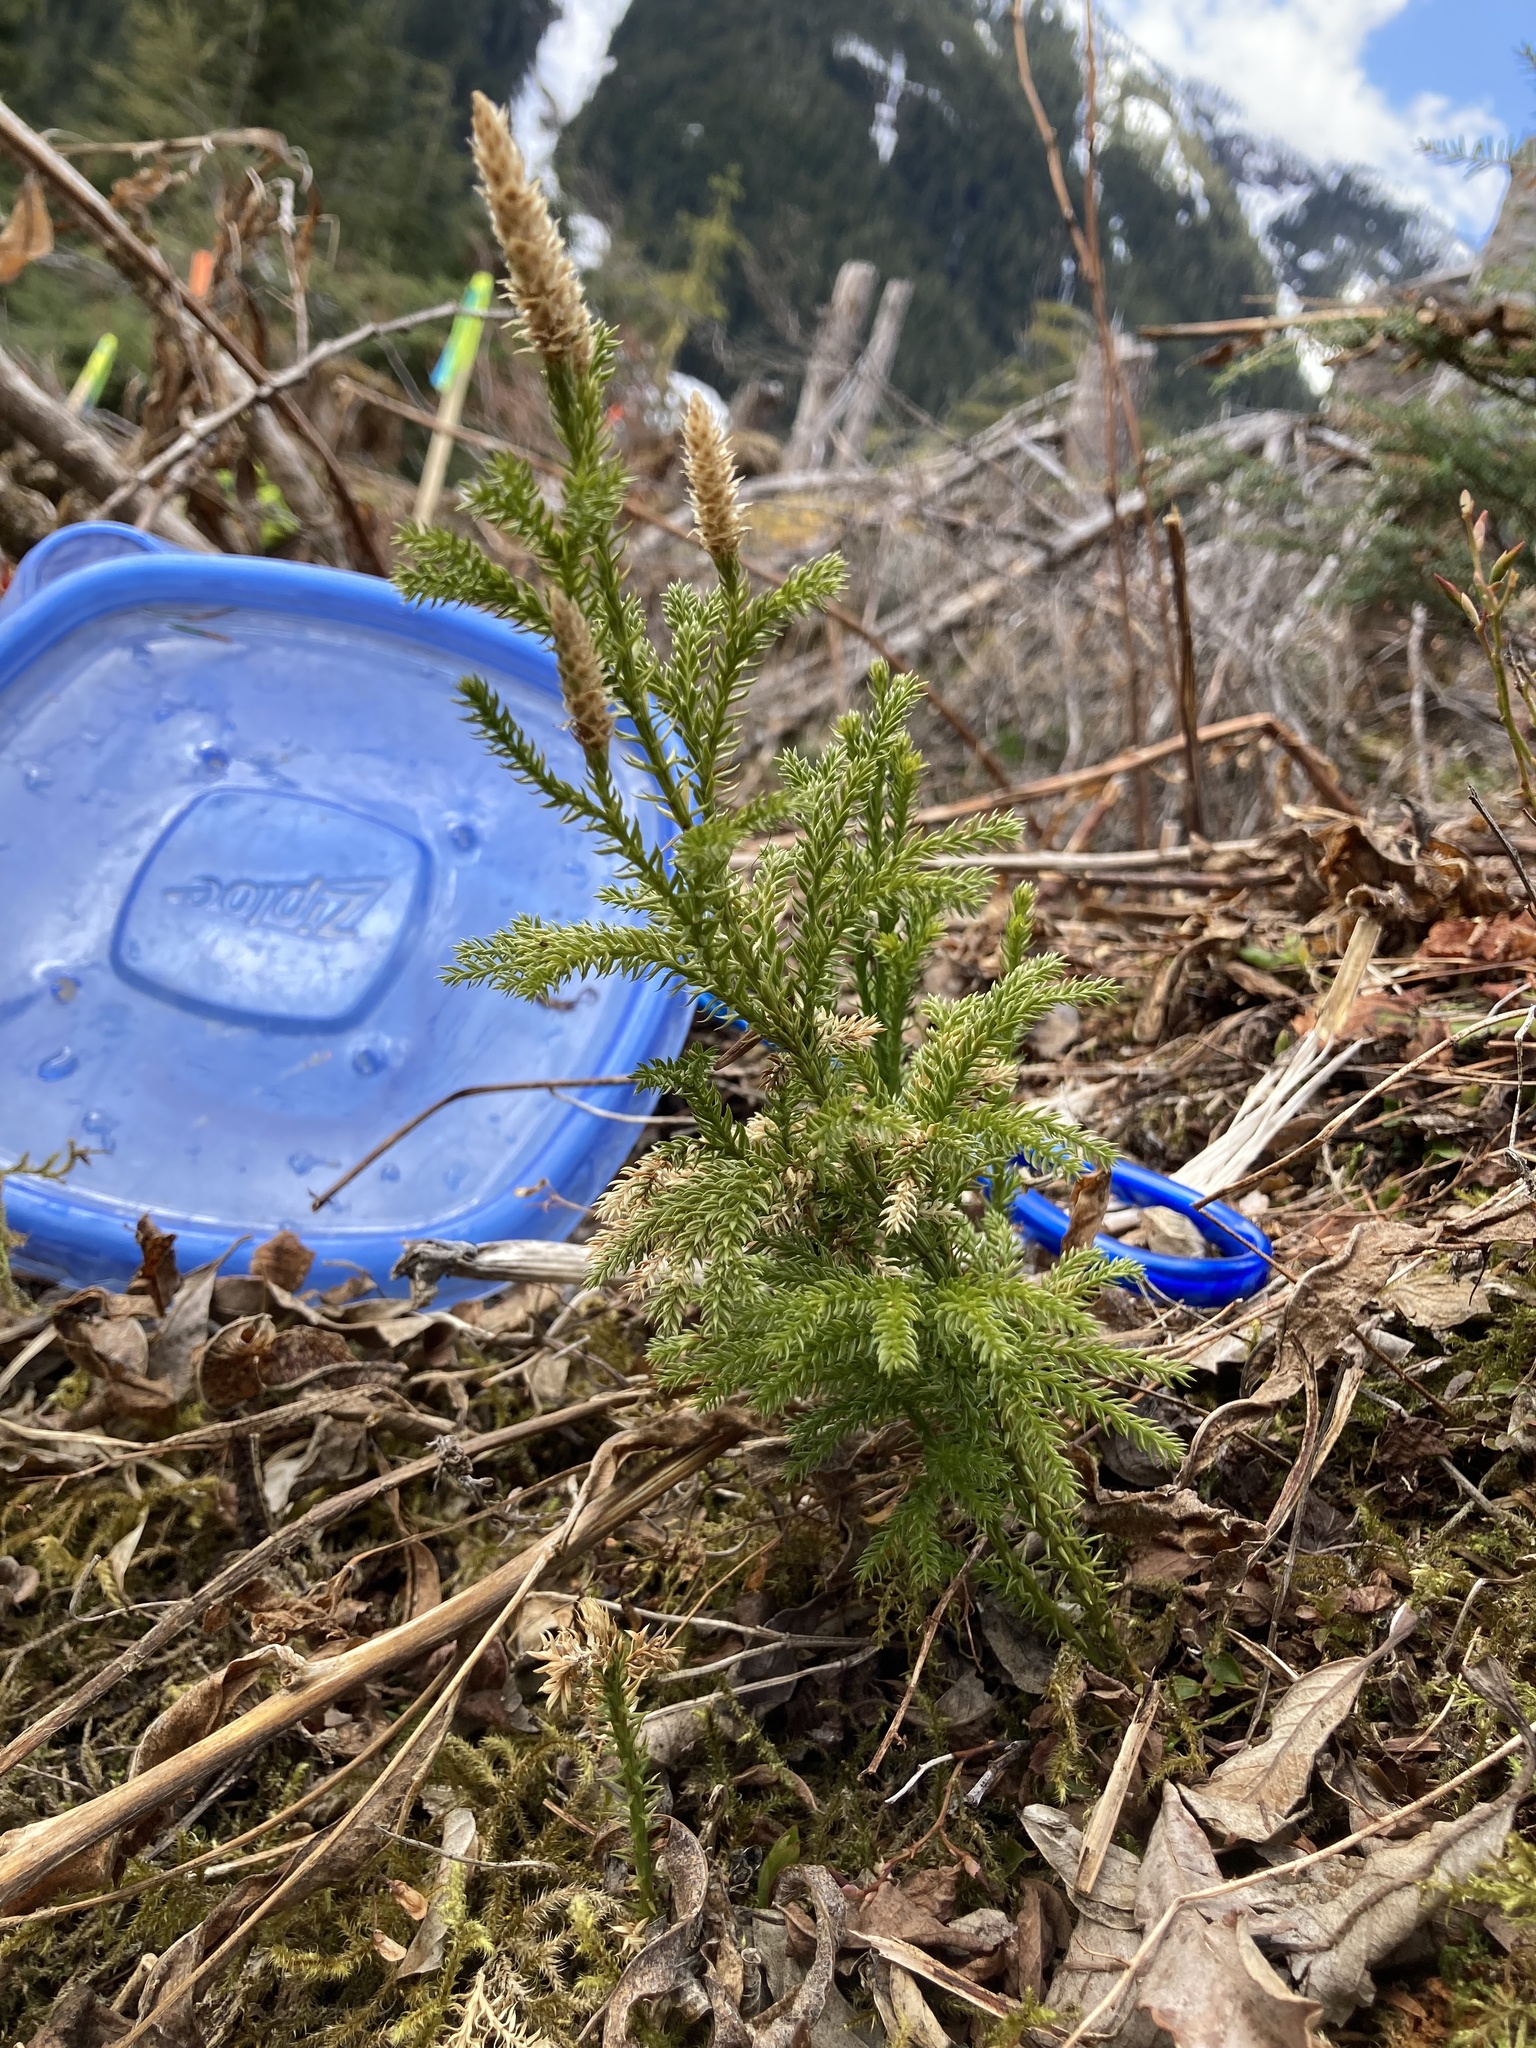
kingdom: Plantae
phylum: Tracheophyta
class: Lycopodiopsida
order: Lycopodiales
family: Lycopodiaceae
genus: Dendrolycopodium
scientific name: Dendrolycopodium dendroideum
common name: Northern tree-clubmoss
